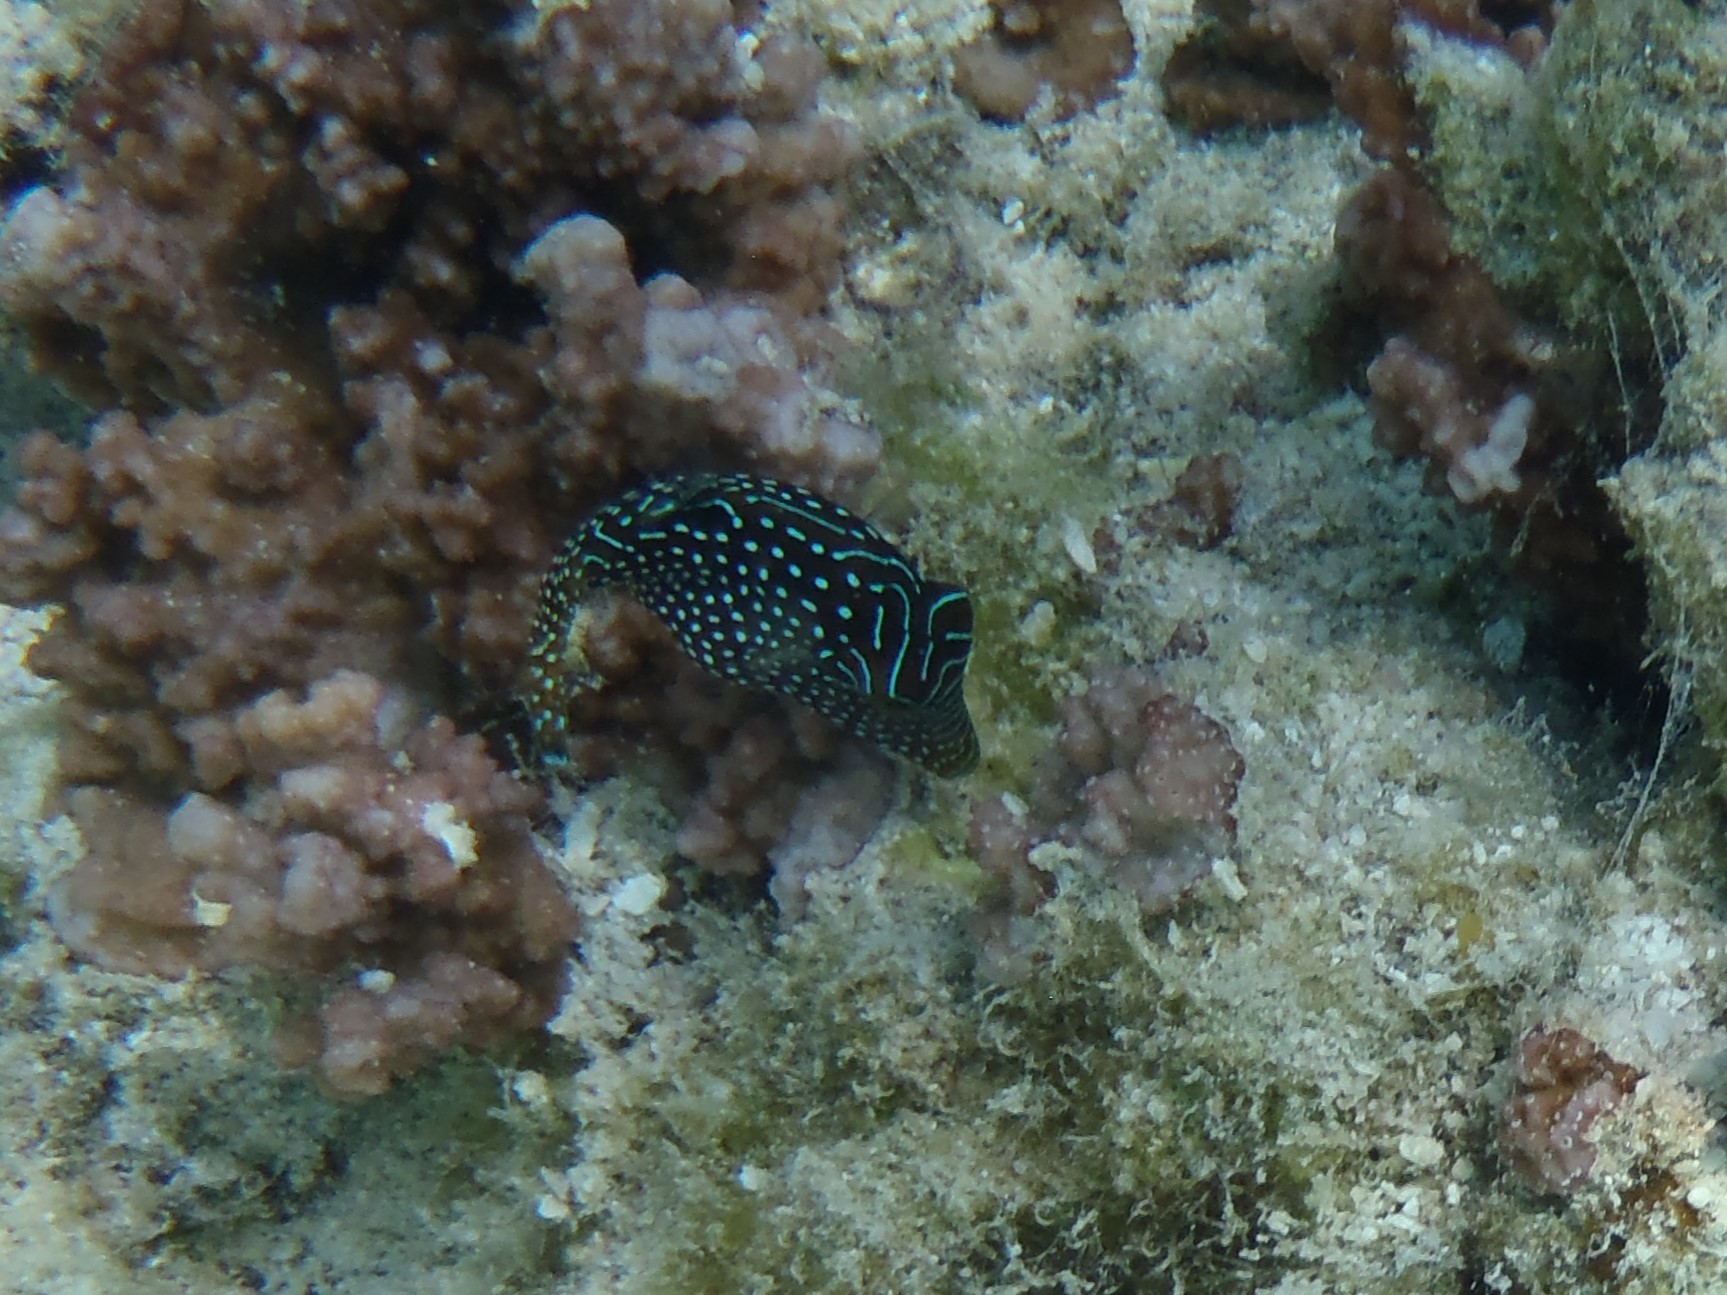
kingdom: Animalia
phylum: Chordata
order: Tetraodontiformes
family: Tetraodontidae
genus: Canthigaster
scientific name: Canthigaster solandri
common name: False-eye toby
